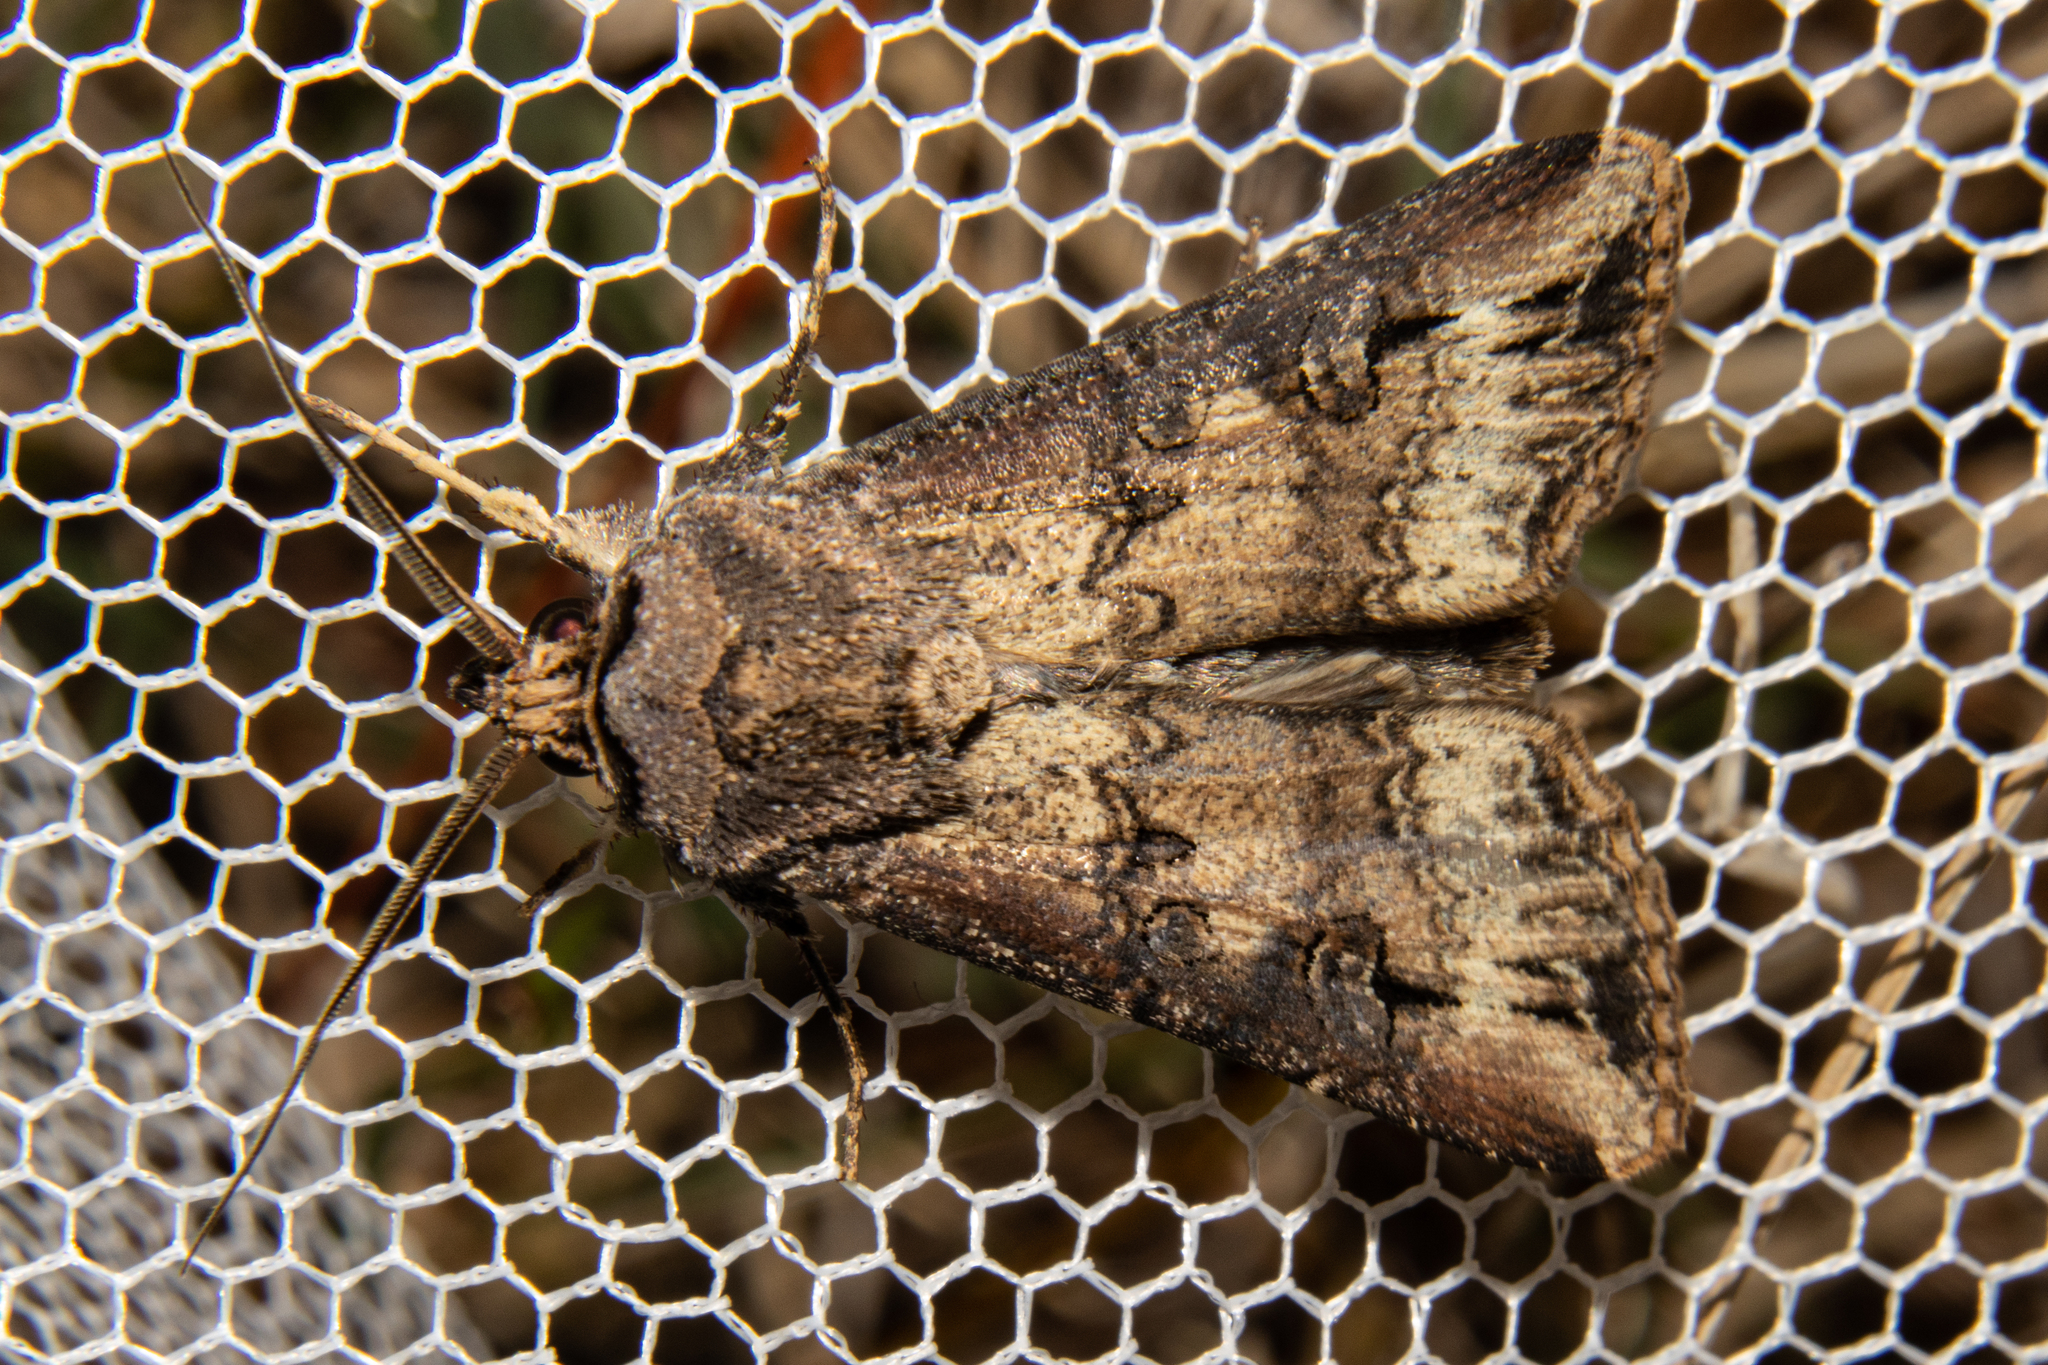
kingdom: Animalia
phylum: Arthropoda
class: Insecta
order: Lepidoptera
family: Noctuidae
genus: Agrotis
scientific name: Agrotis ipsilon
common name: Dark sword-grass
